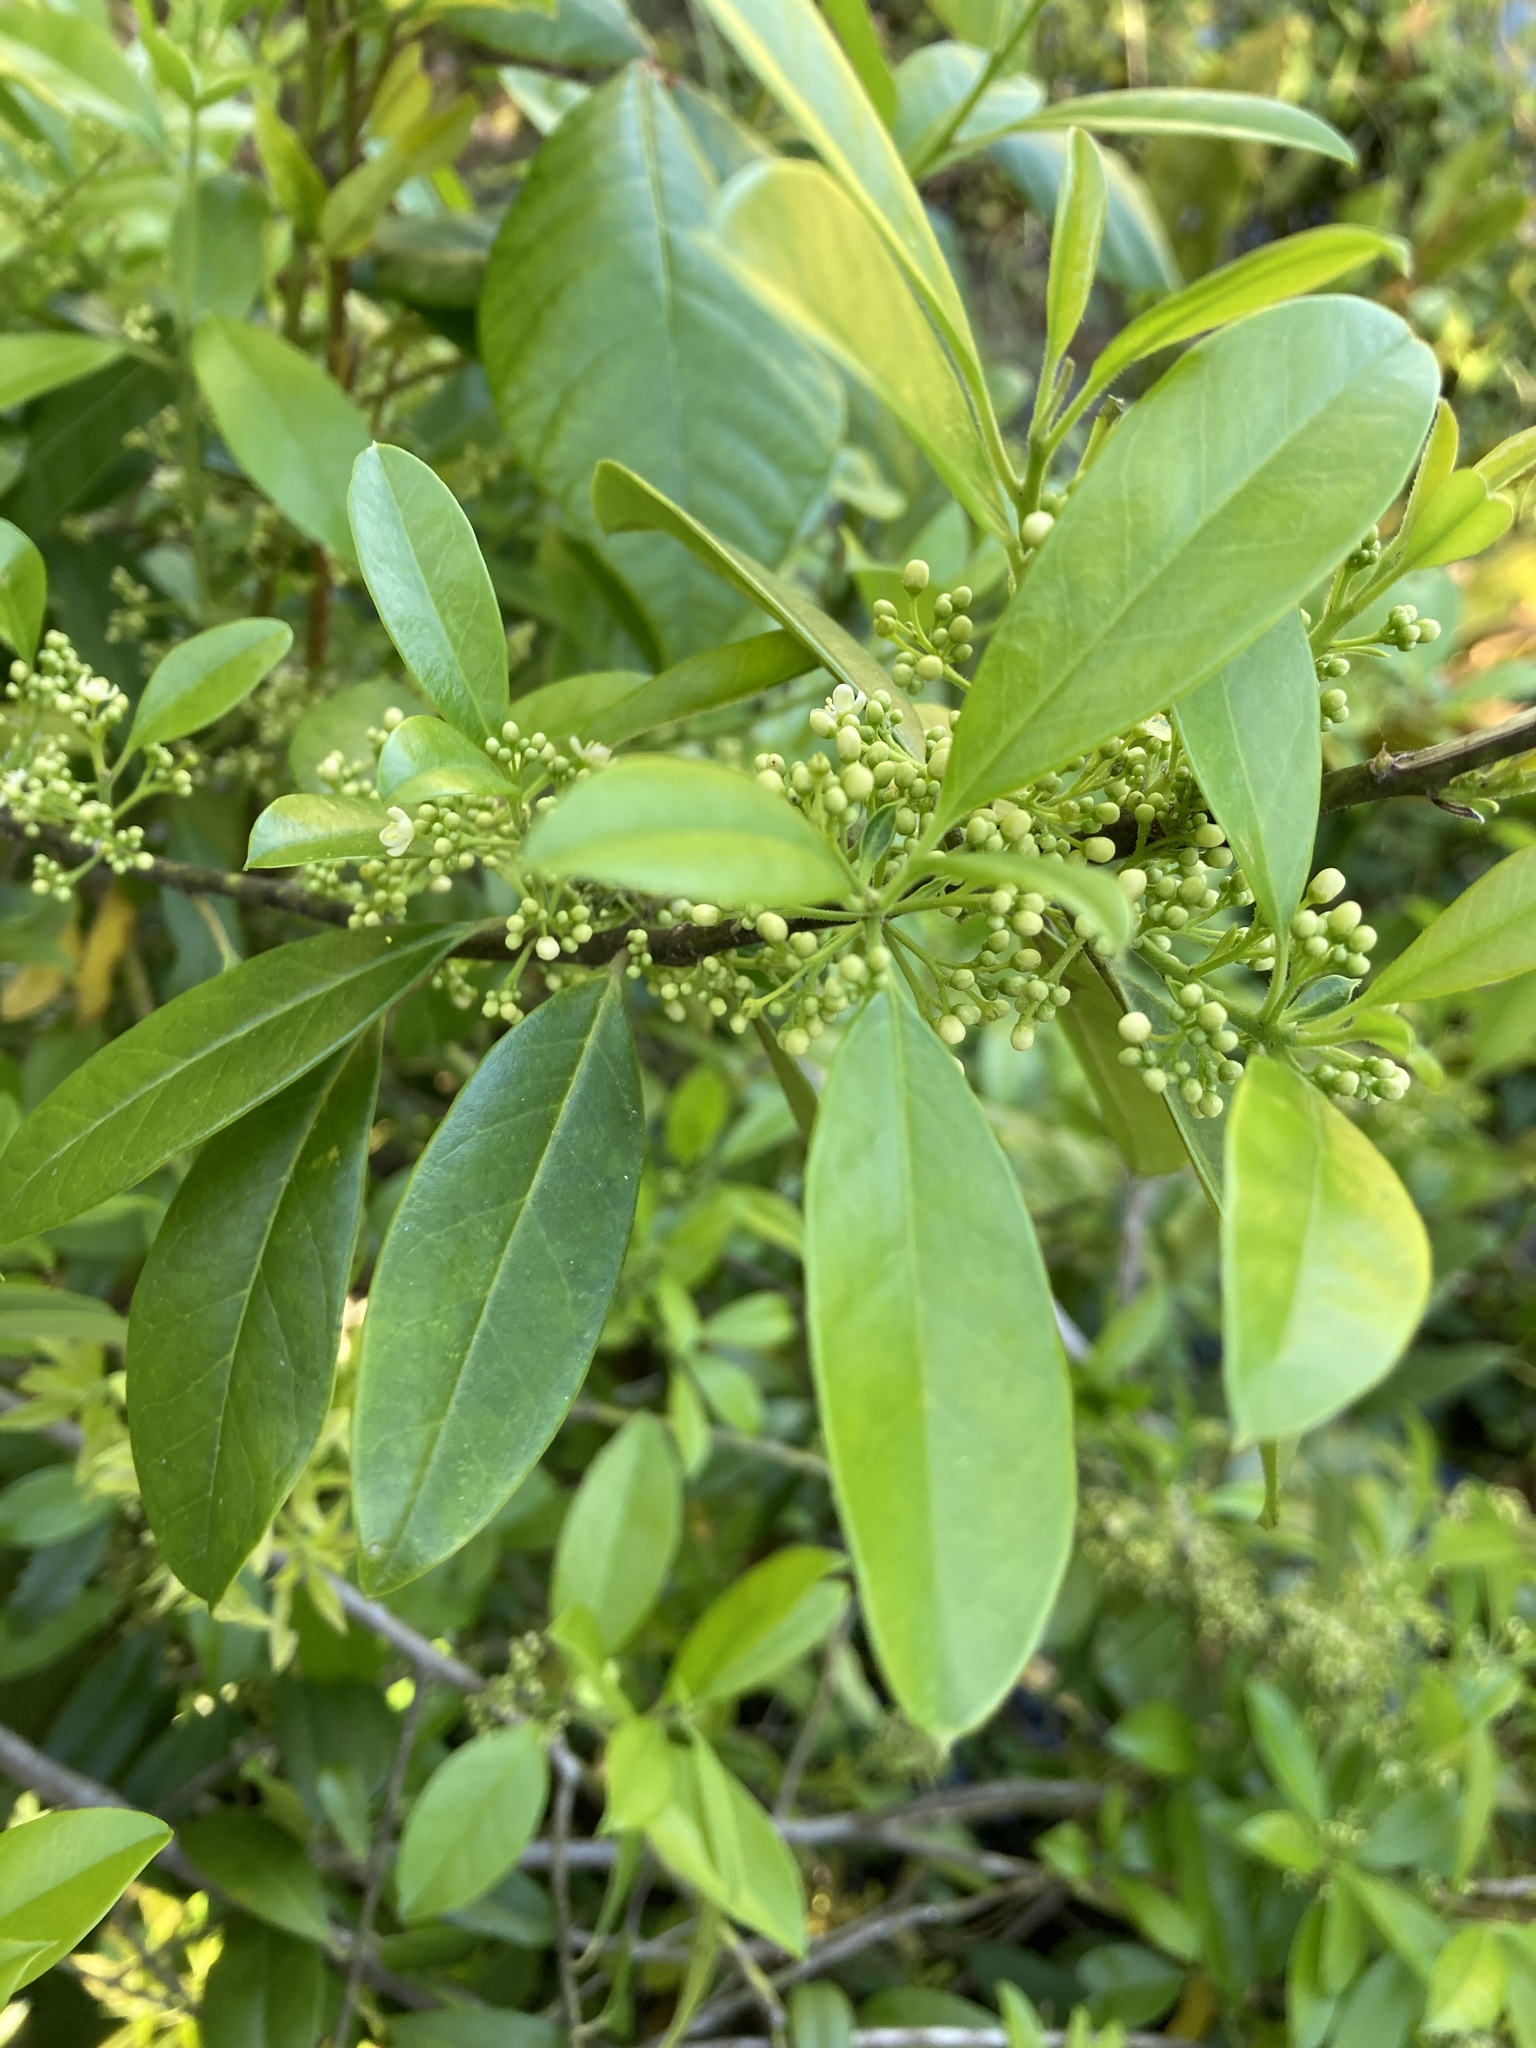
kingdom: Plantae
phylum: Tracheophyta
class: Magnoliopsida
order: Aquifoliales
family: Aquifoliaceae
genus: Ilex
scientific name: Ilex cassine
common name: Dahoon
